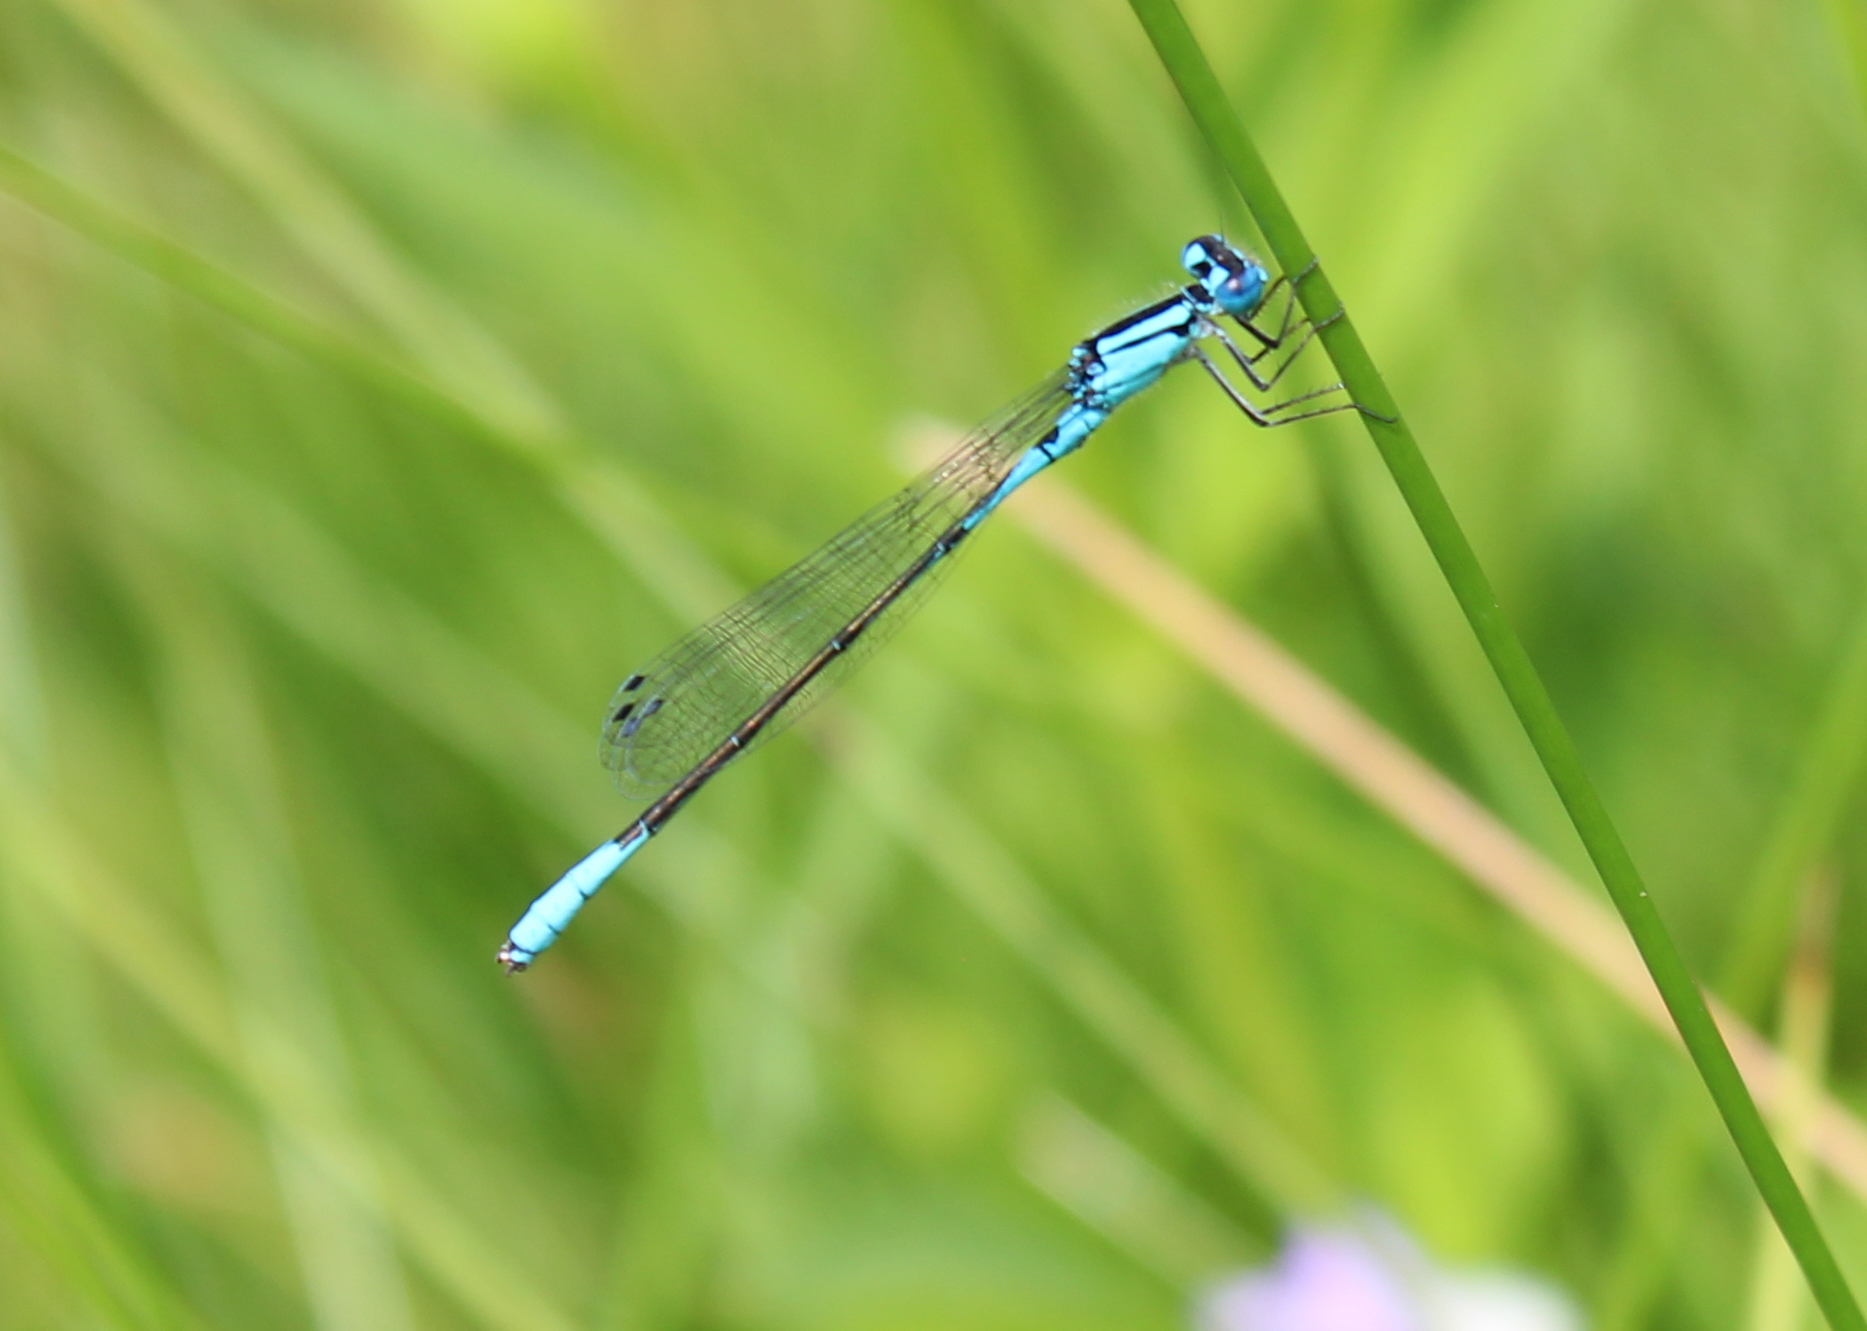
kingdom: Animalia
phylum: Arthropoda
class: Insecta
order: Odonata
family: Coenagrionidae
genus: Enallagma
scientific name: Enallagma aspersum
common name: Azure bluet
